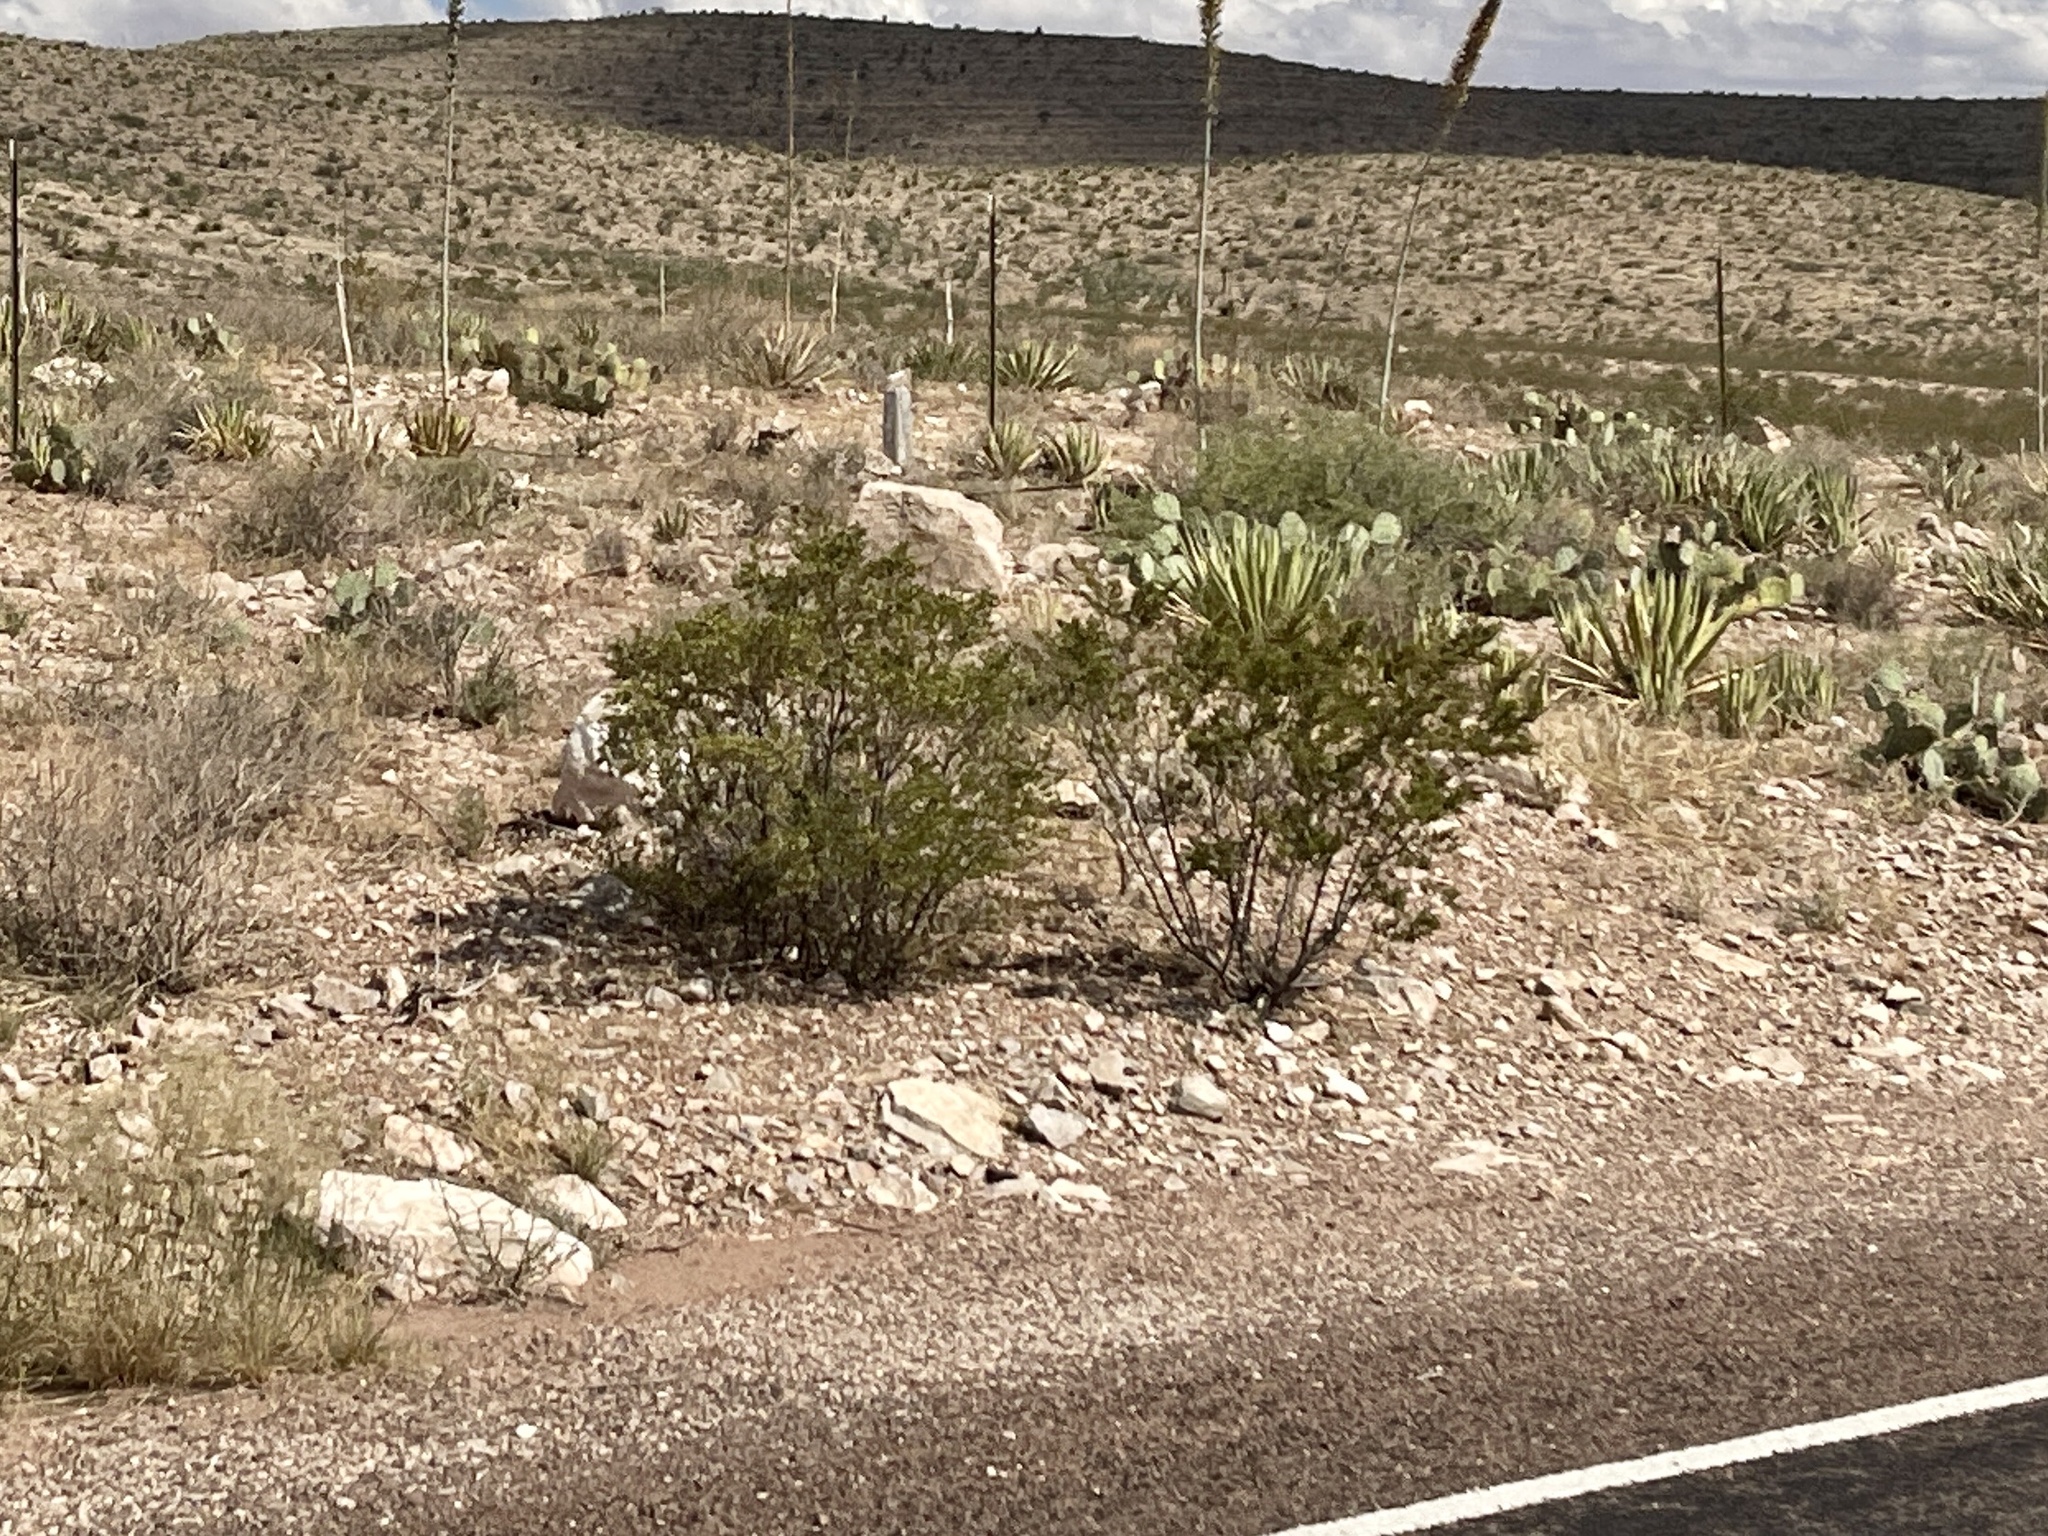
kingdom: Plantae
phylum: Tracheophyta
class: Magnoliopsida
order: Zygophyllales
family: Zygophyllaceae
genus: Larrea
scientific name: Larrea tridentata
